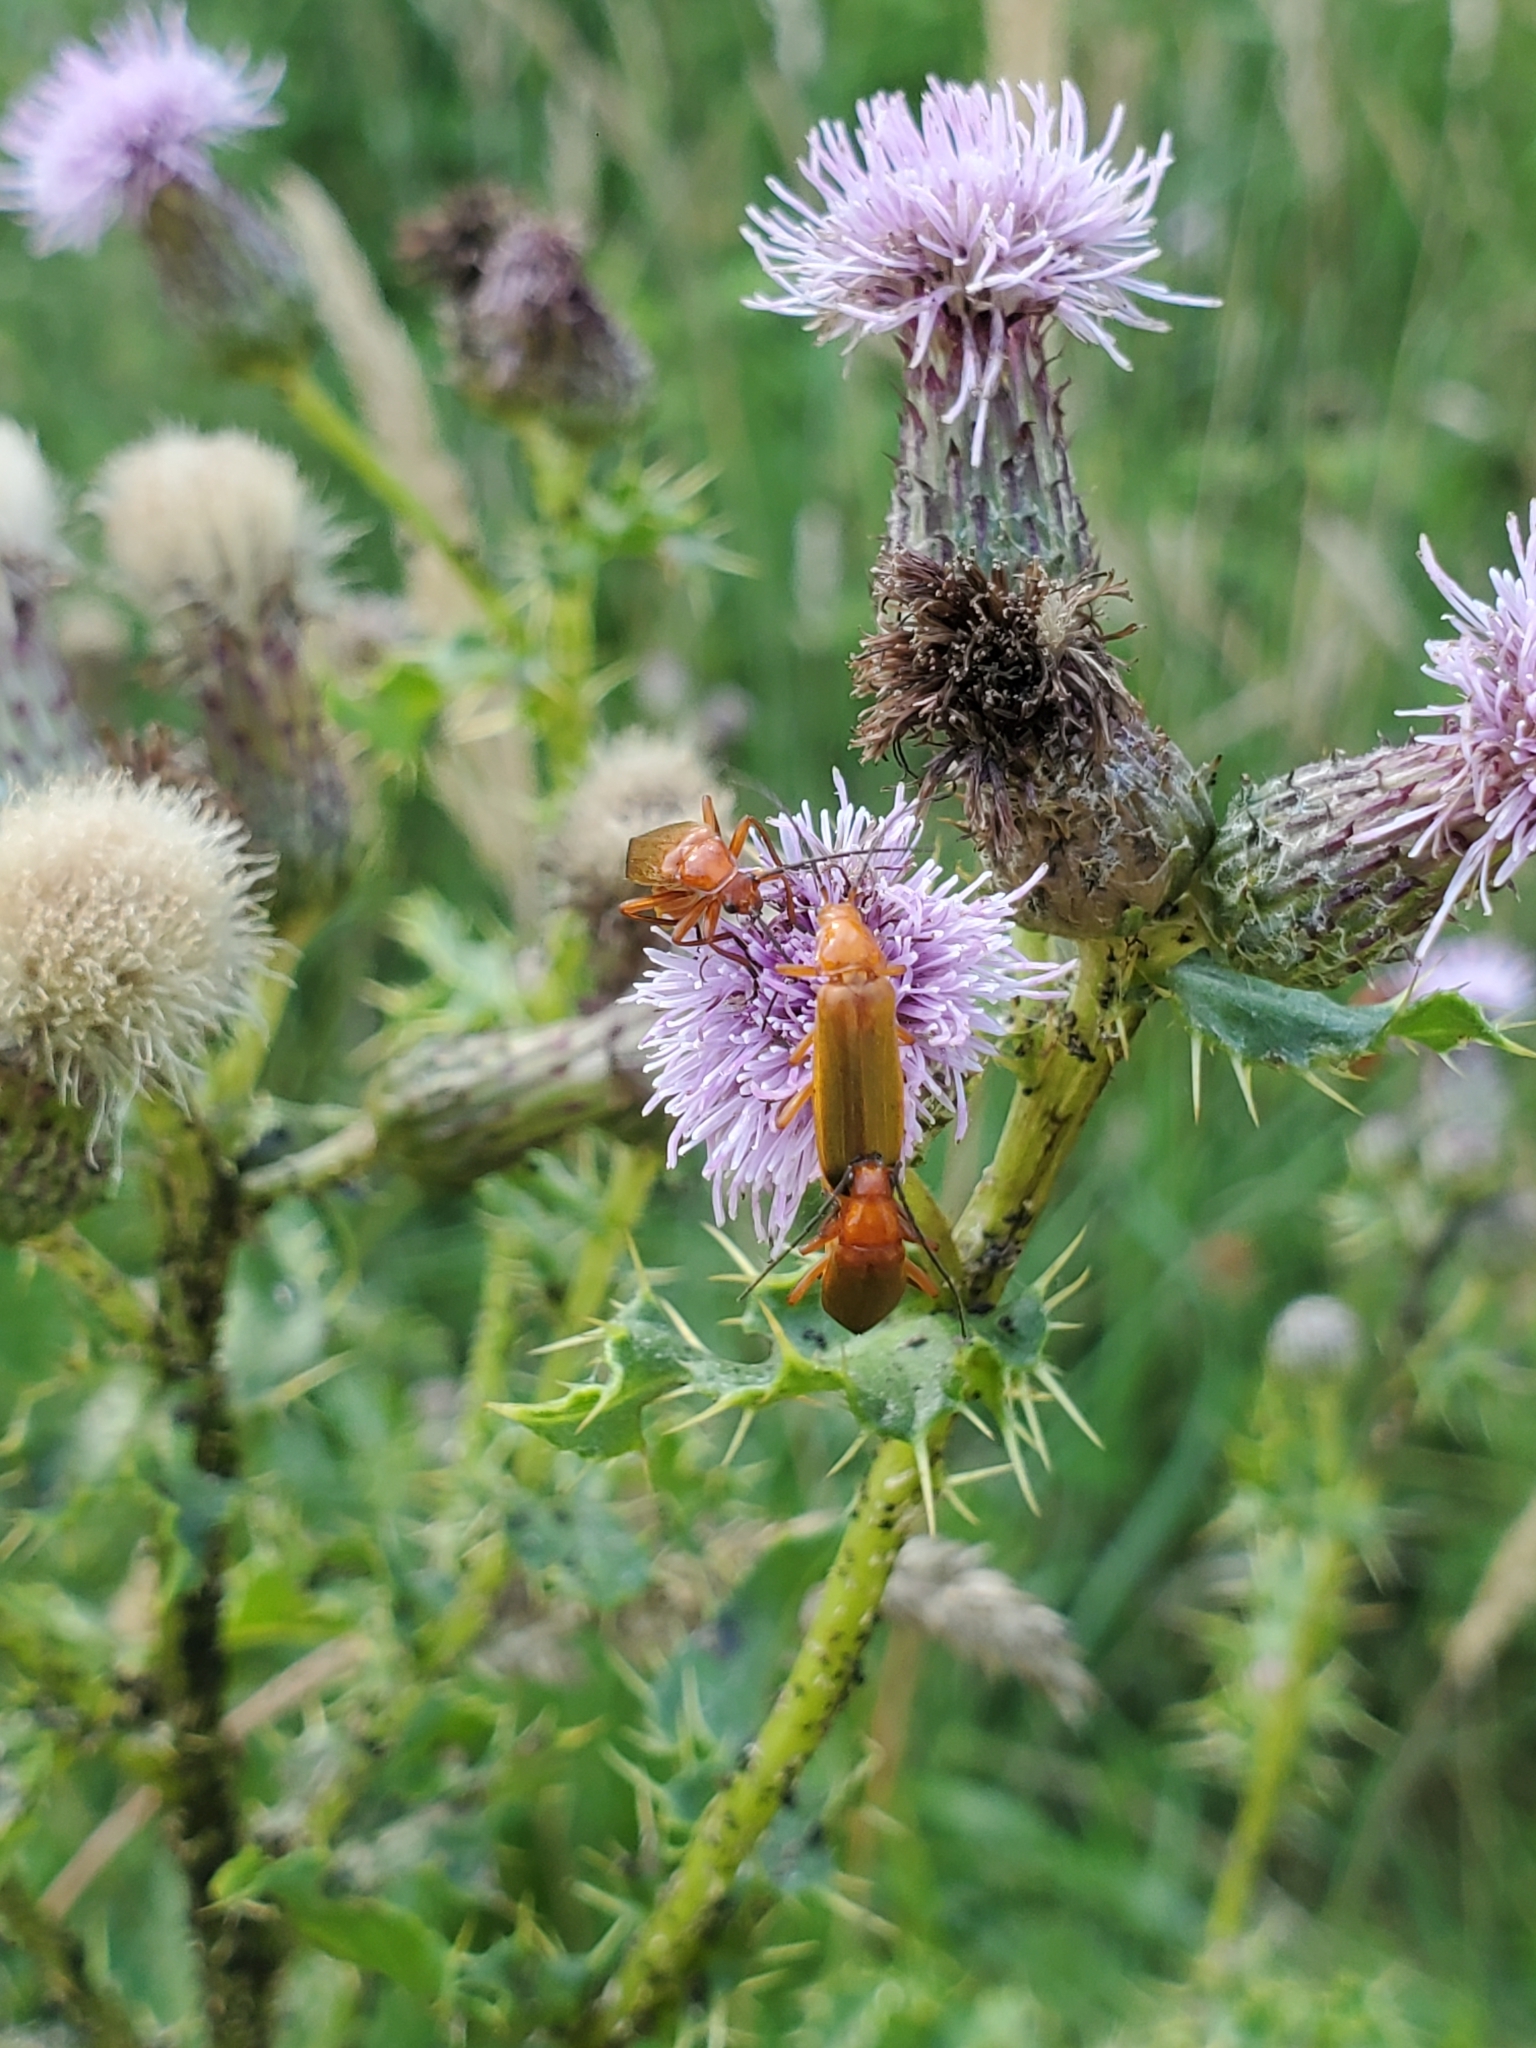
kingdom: Animalia
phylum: Arthropoda
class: Insecta
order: Coleoptera
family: Cantharidae
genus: Rhagonycha
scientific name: Rhagonycha fulva
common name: Common red soldier beetle
